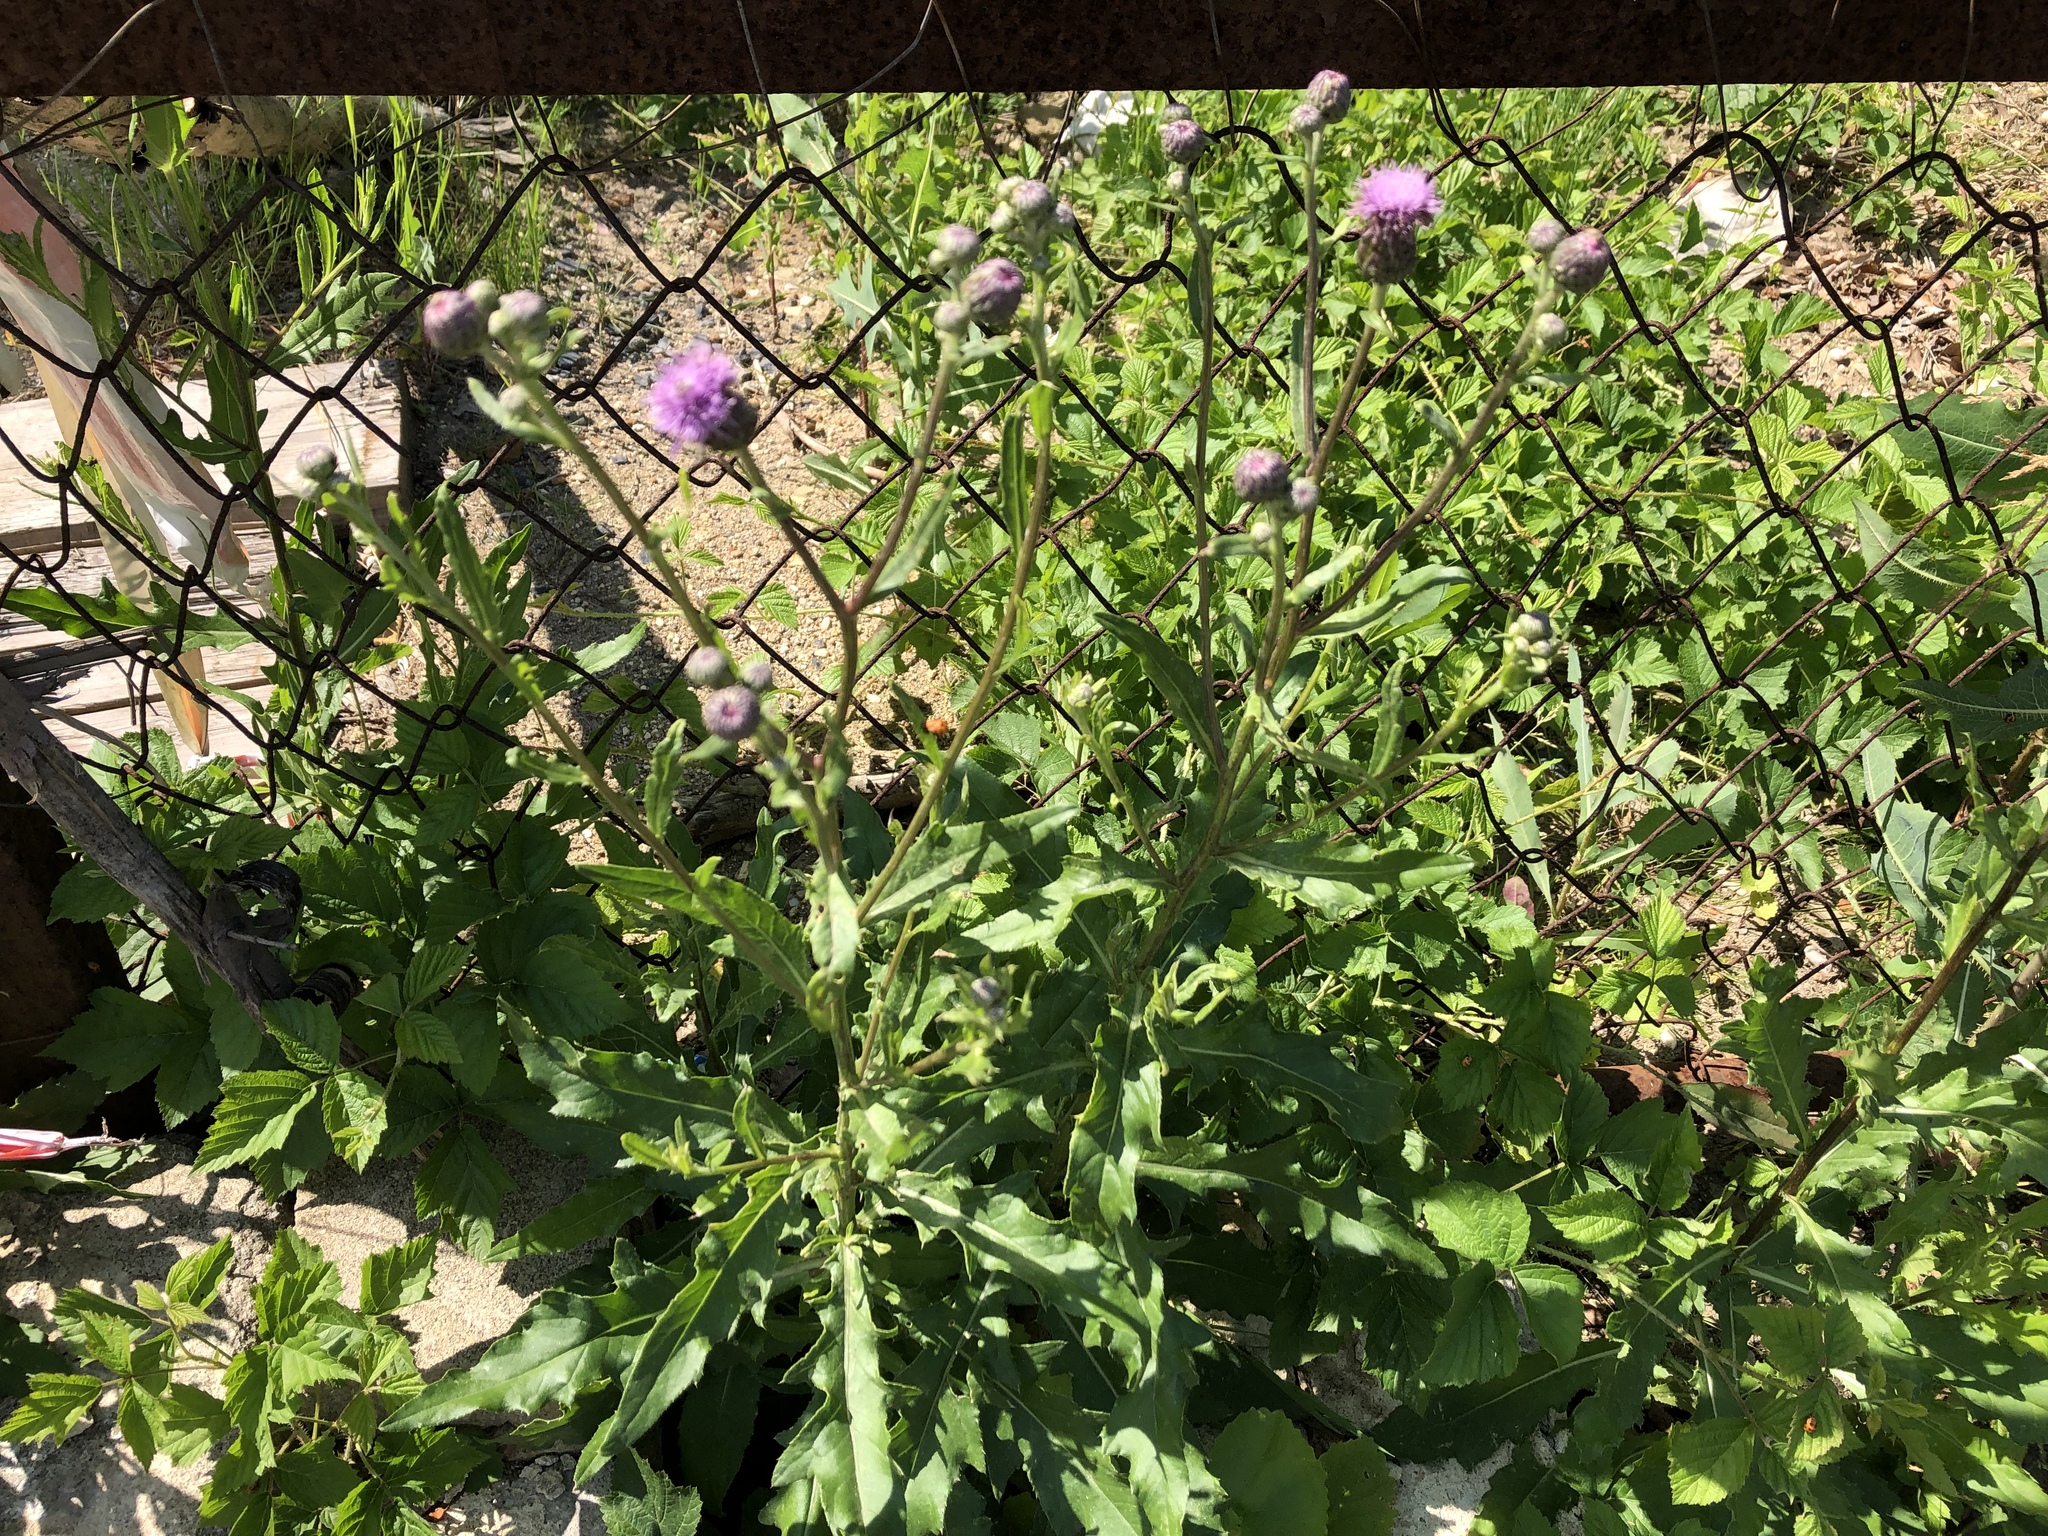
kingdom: Plantae
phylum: Tracheophyta
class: Magnoliopsida
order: Asterales
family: Asteraceae
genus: Cirsium
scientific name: Cirsium arvense
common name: Creeping thistle
